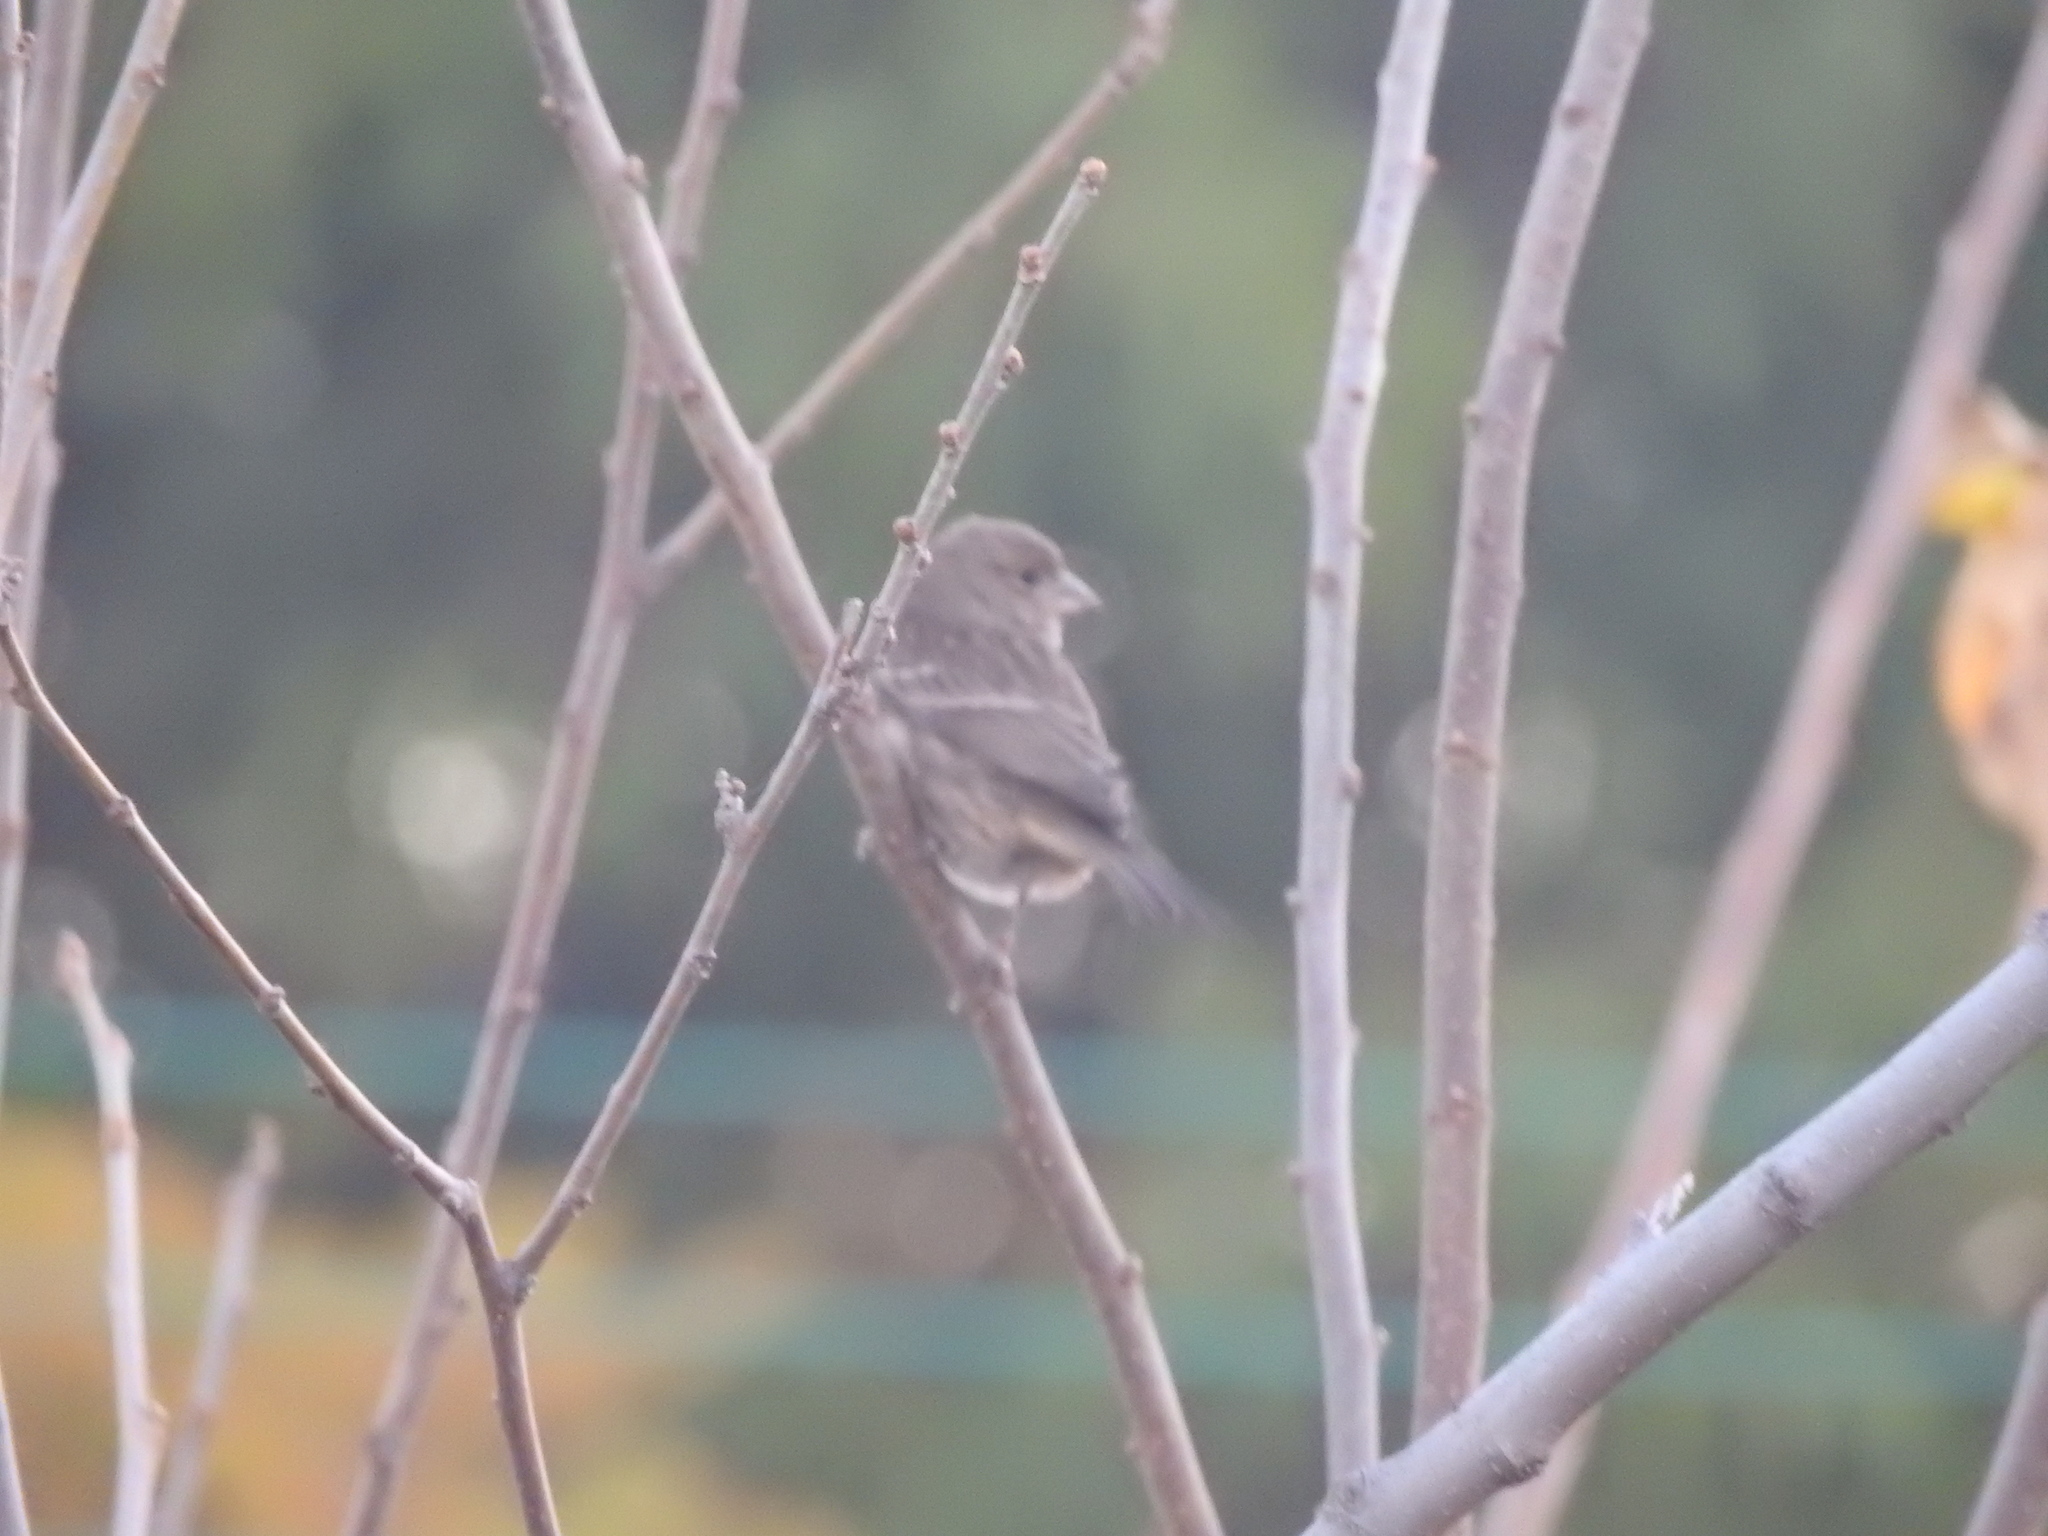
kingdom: Animalia
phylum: Chordata
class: Aves
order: Passeriformes
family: Cardinalidae
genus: Passerina
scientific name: Passerina cyanea
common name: Indigo bunting
